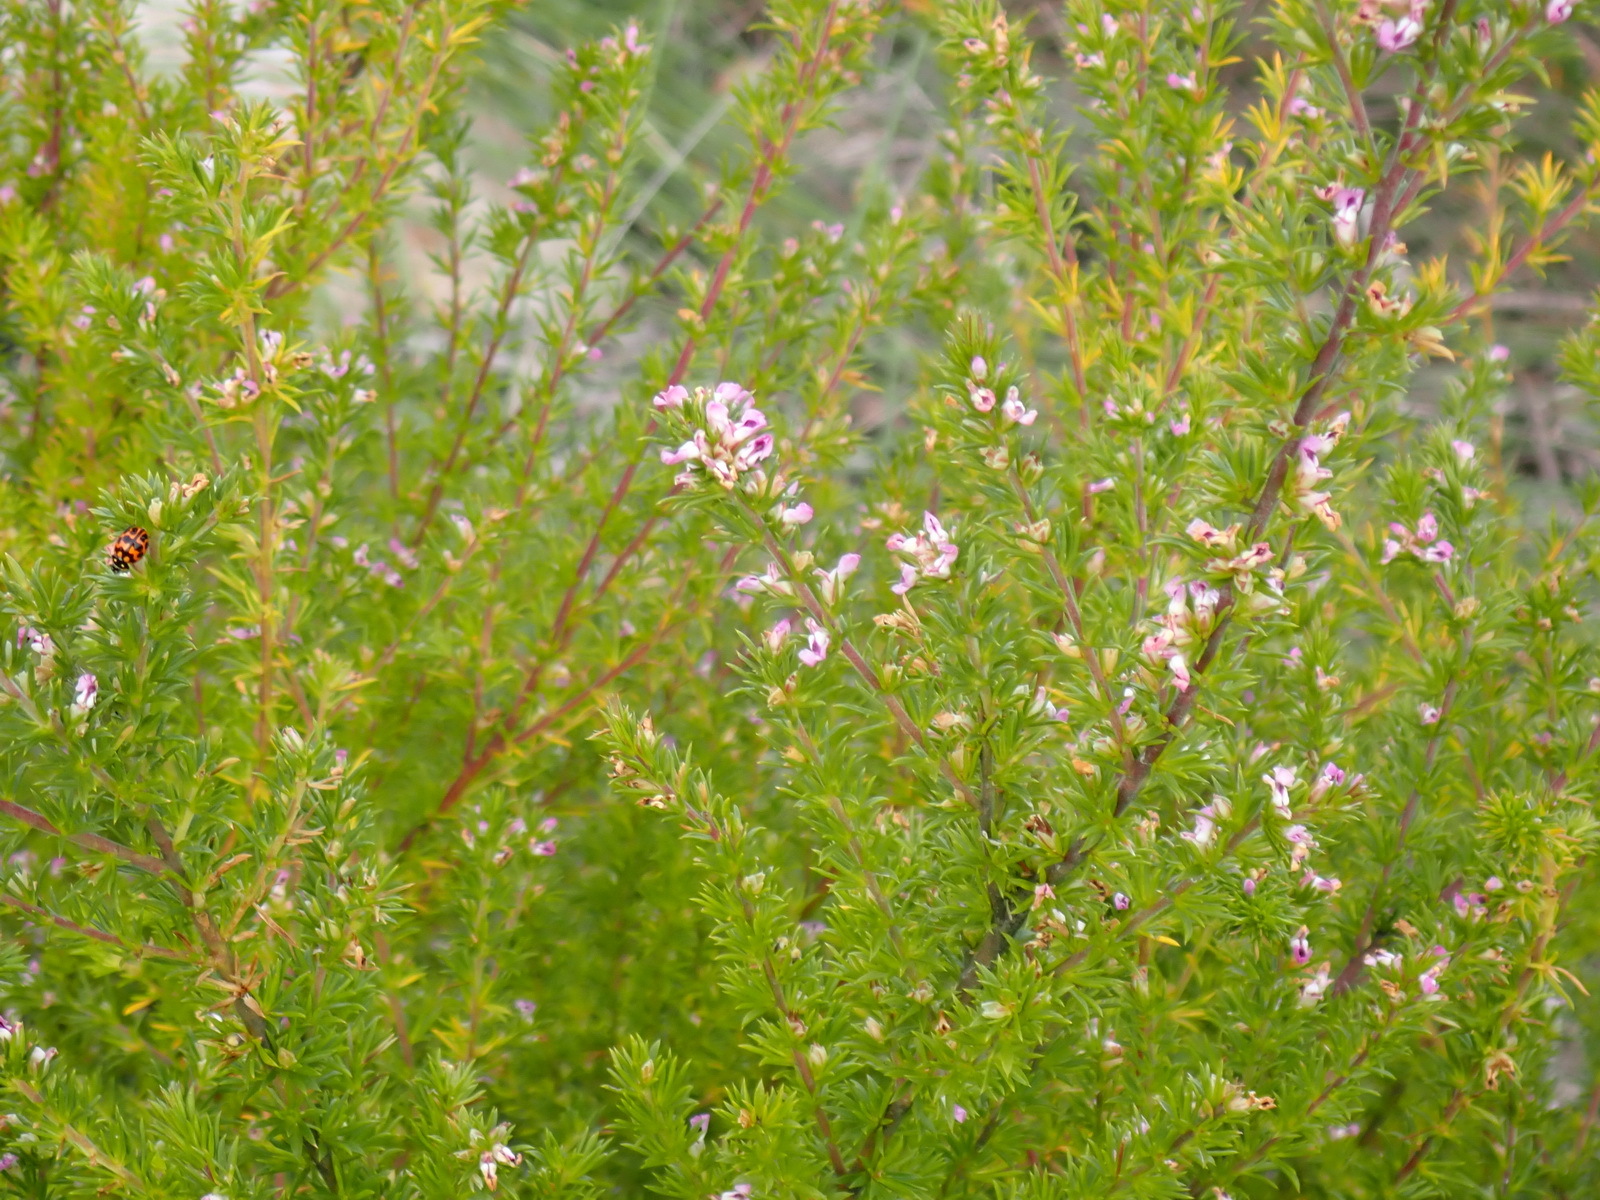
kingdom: Plantae
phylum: Tracheophyta
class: Magnoliopsida
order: Fabales
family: Polygalaceae
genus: Muraltia
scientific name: Muraltia ericifolia
